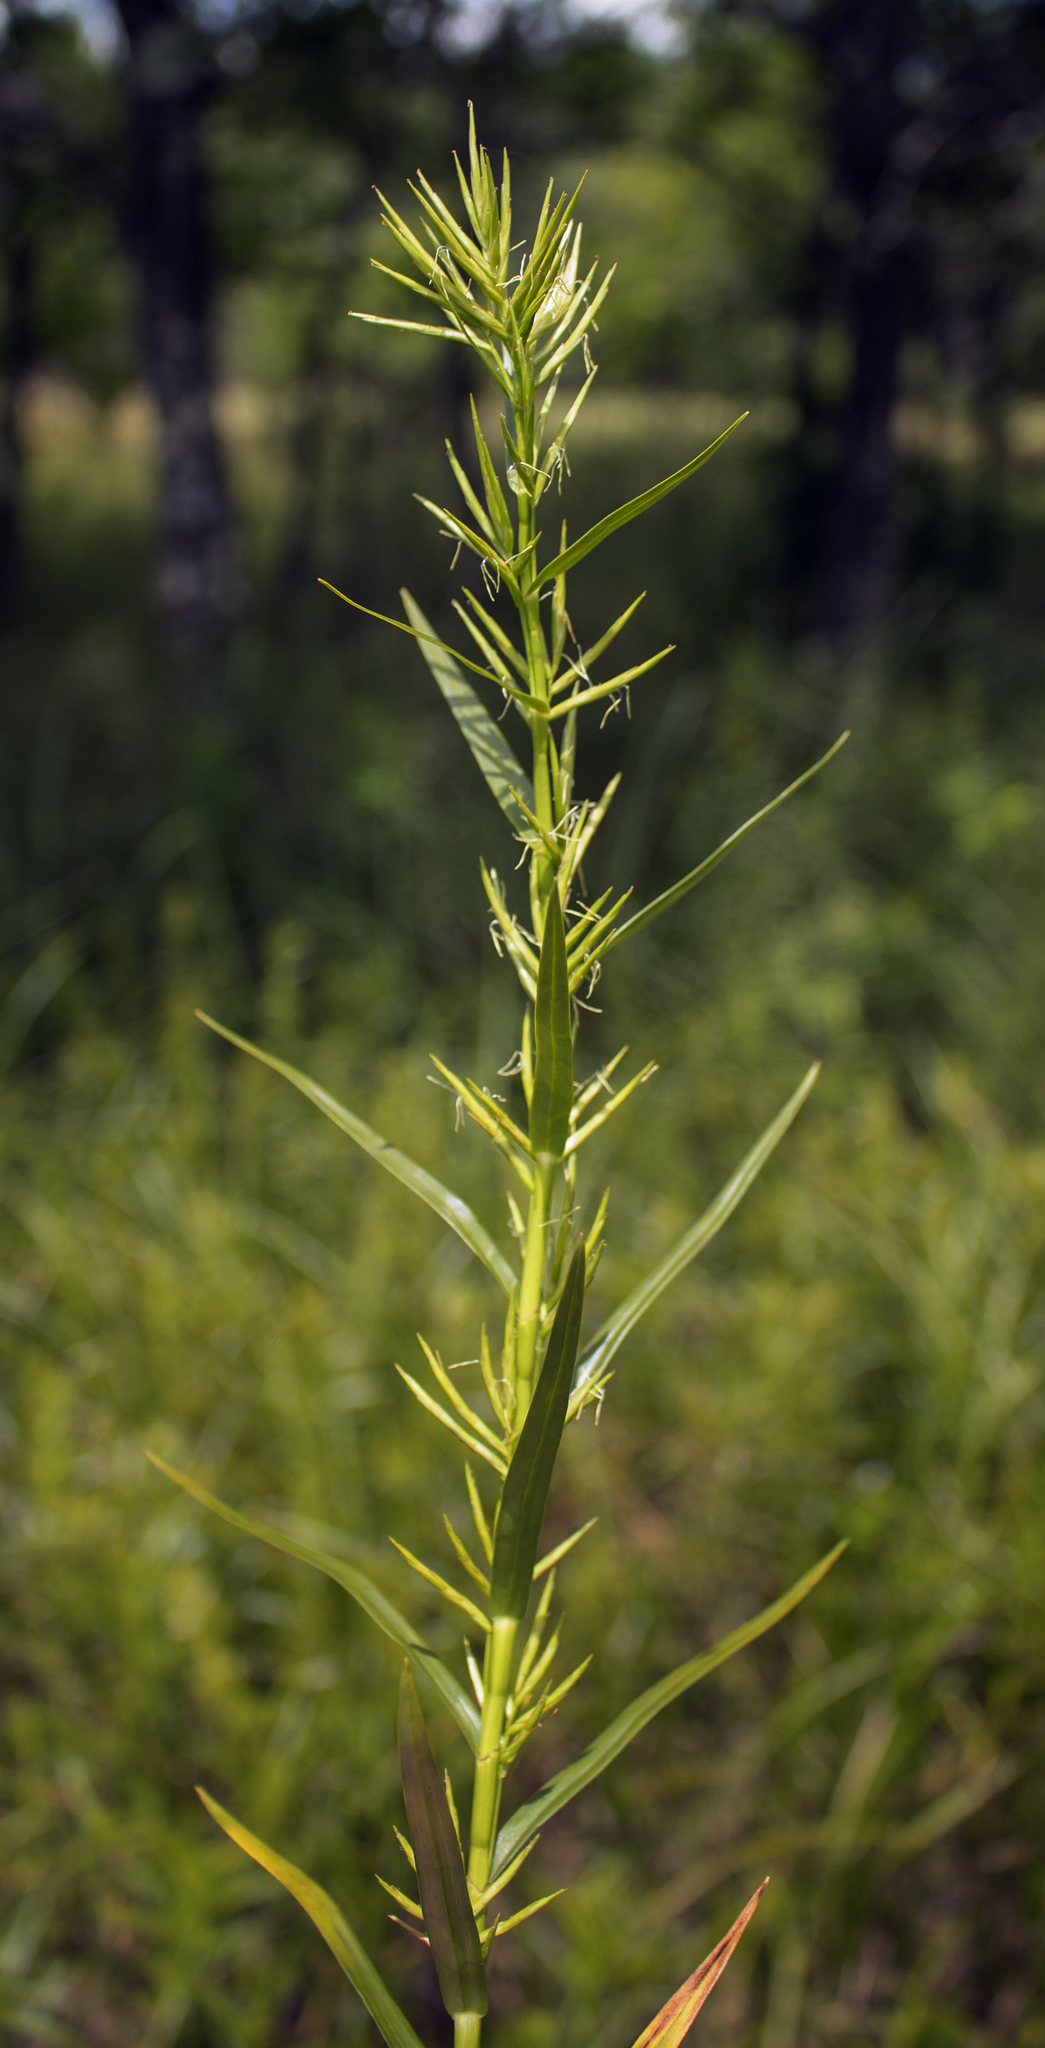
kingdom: Plantae
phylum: Tracheophyta
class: Liliopsida
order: Poales
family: Cyperaceae
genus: Dulichium
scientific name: Dulichium arundinaceum
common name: Three-way sedge
